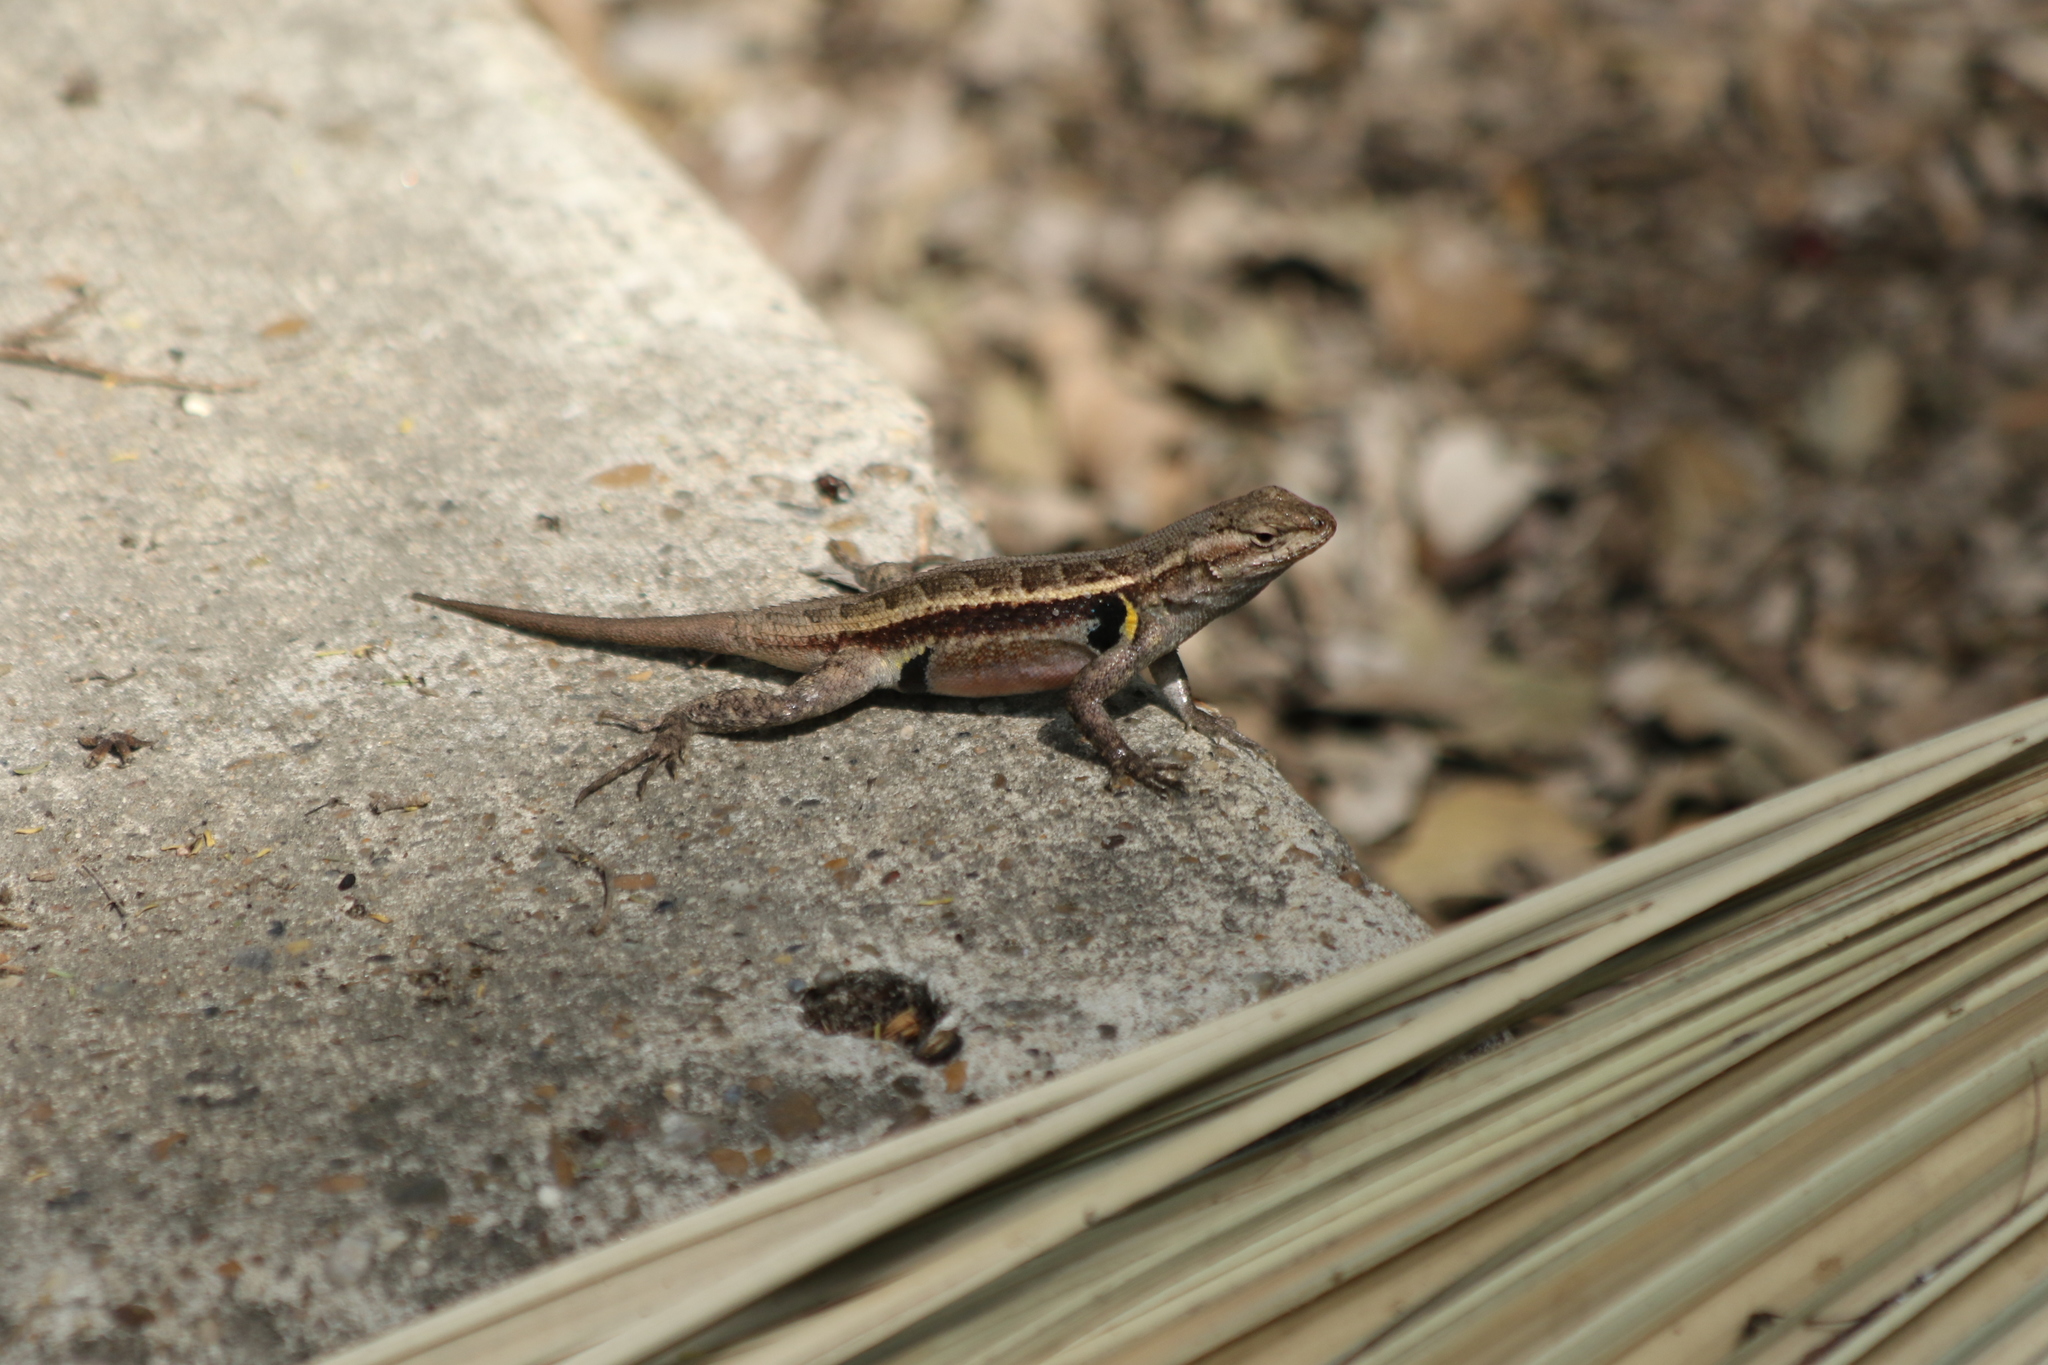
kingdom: Animalia
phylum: Chordata
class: Squamata
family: Phrynosomatidae
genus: Sceloporus
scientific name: Sceloporus variabilis
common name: Rosebelly lizard
